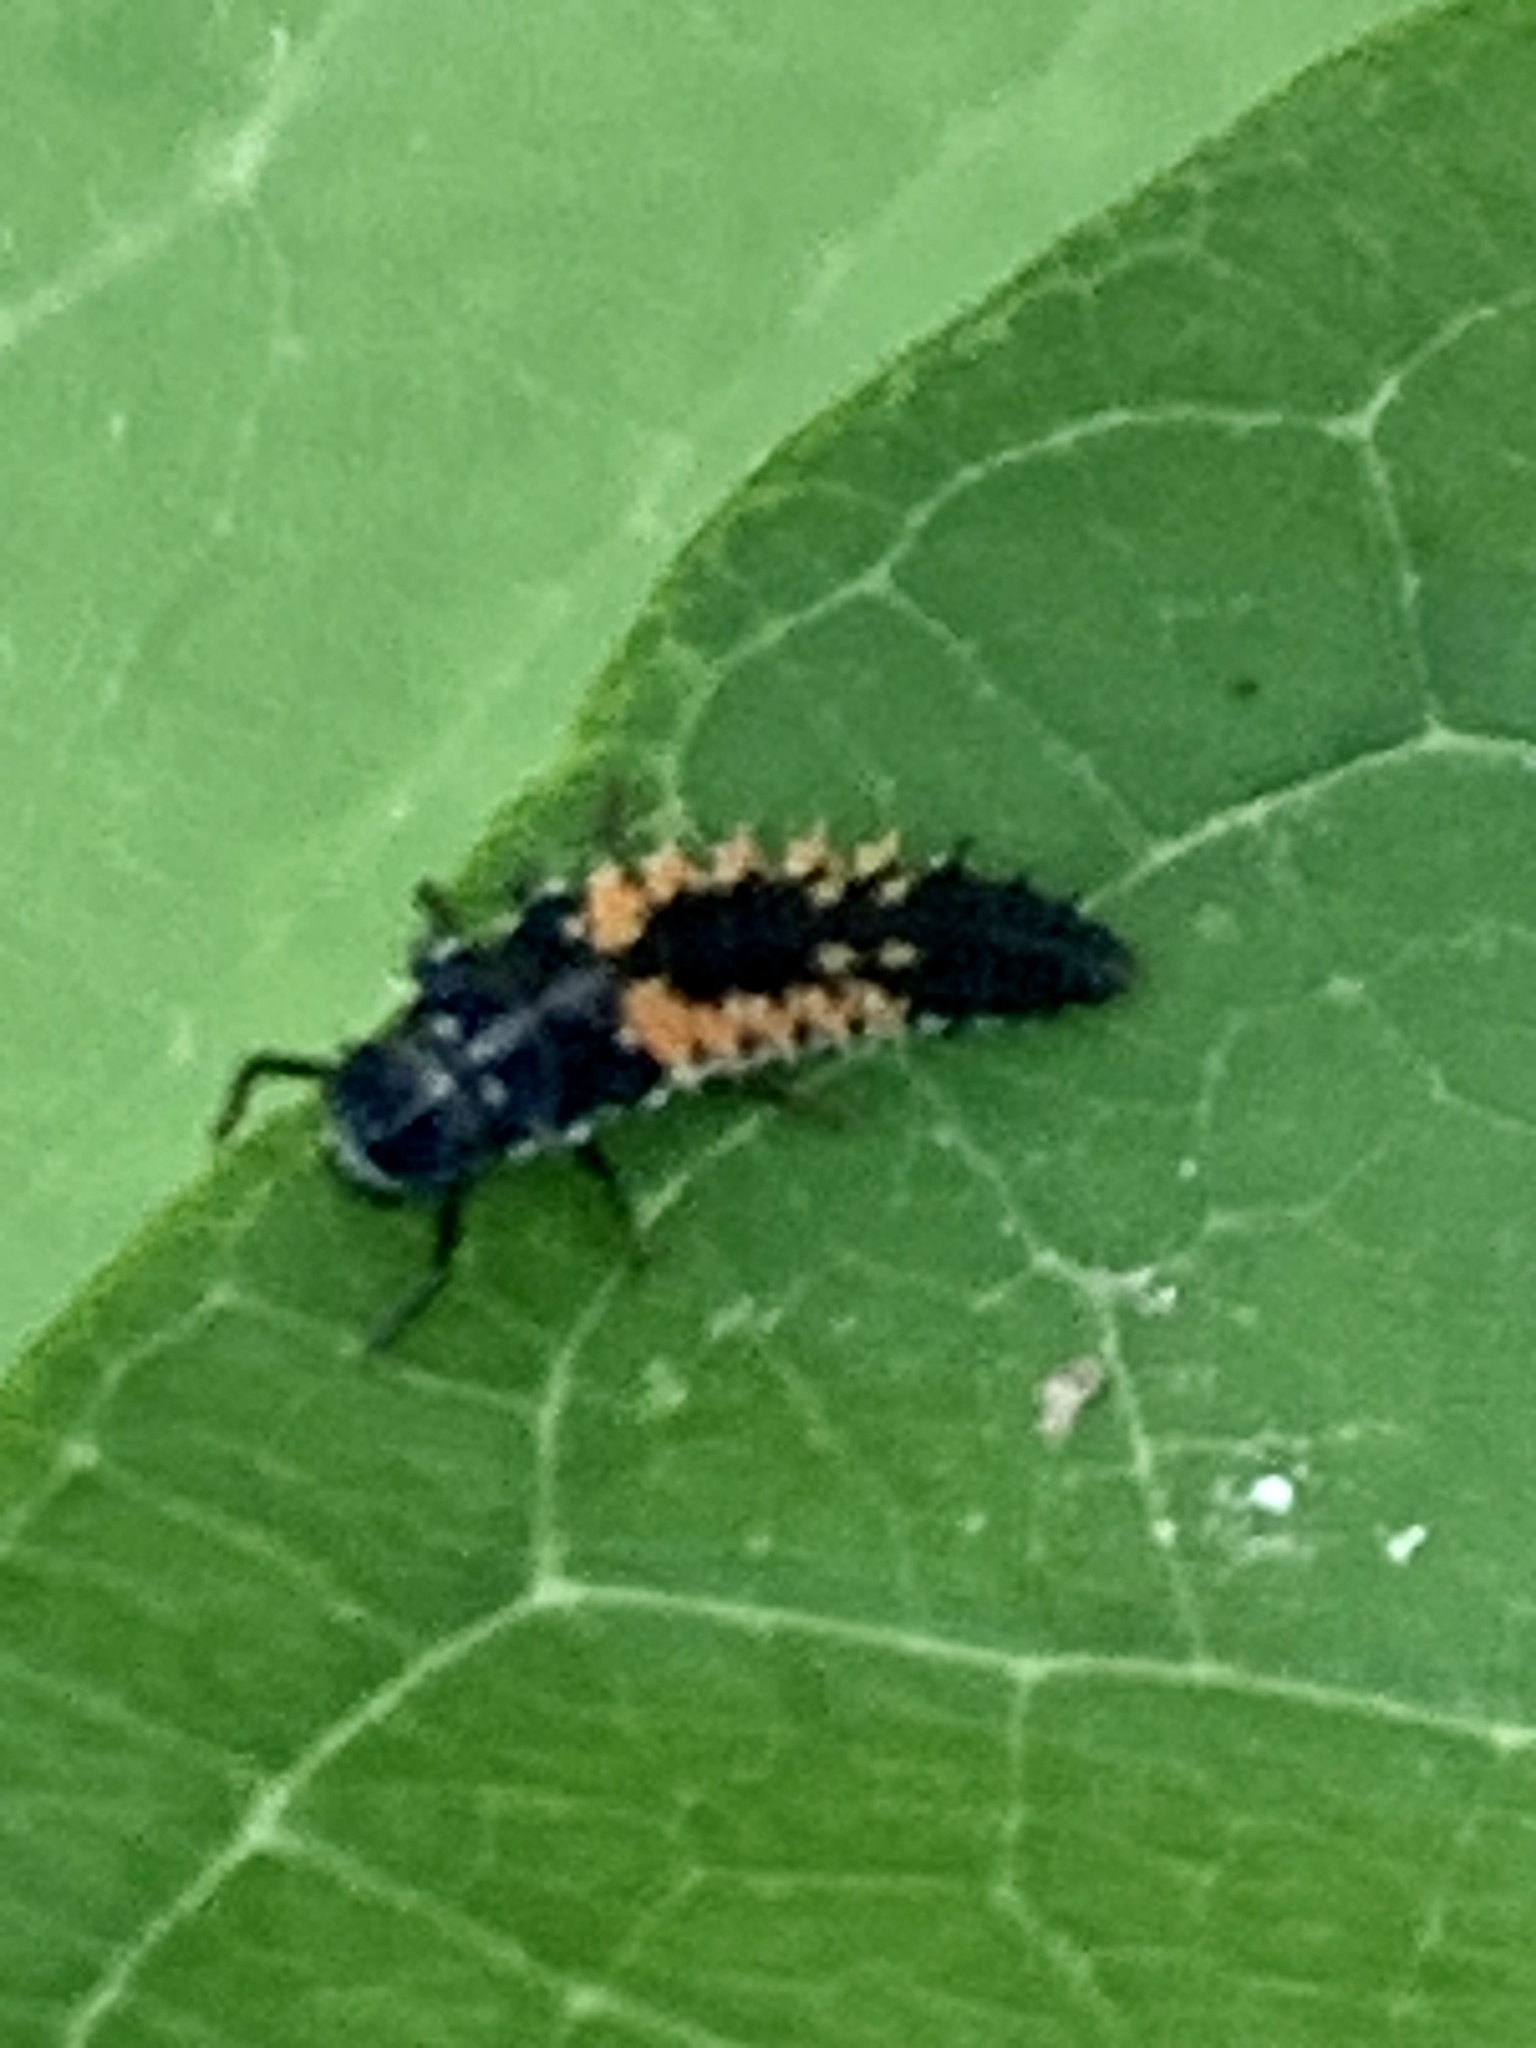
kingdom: Animalia
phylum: Arthropoda
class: Insecta
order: Coleoptera
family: Coccinellidae
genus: Harmonia
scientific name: Harmonia axyridis
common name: Harlequin ladybird
